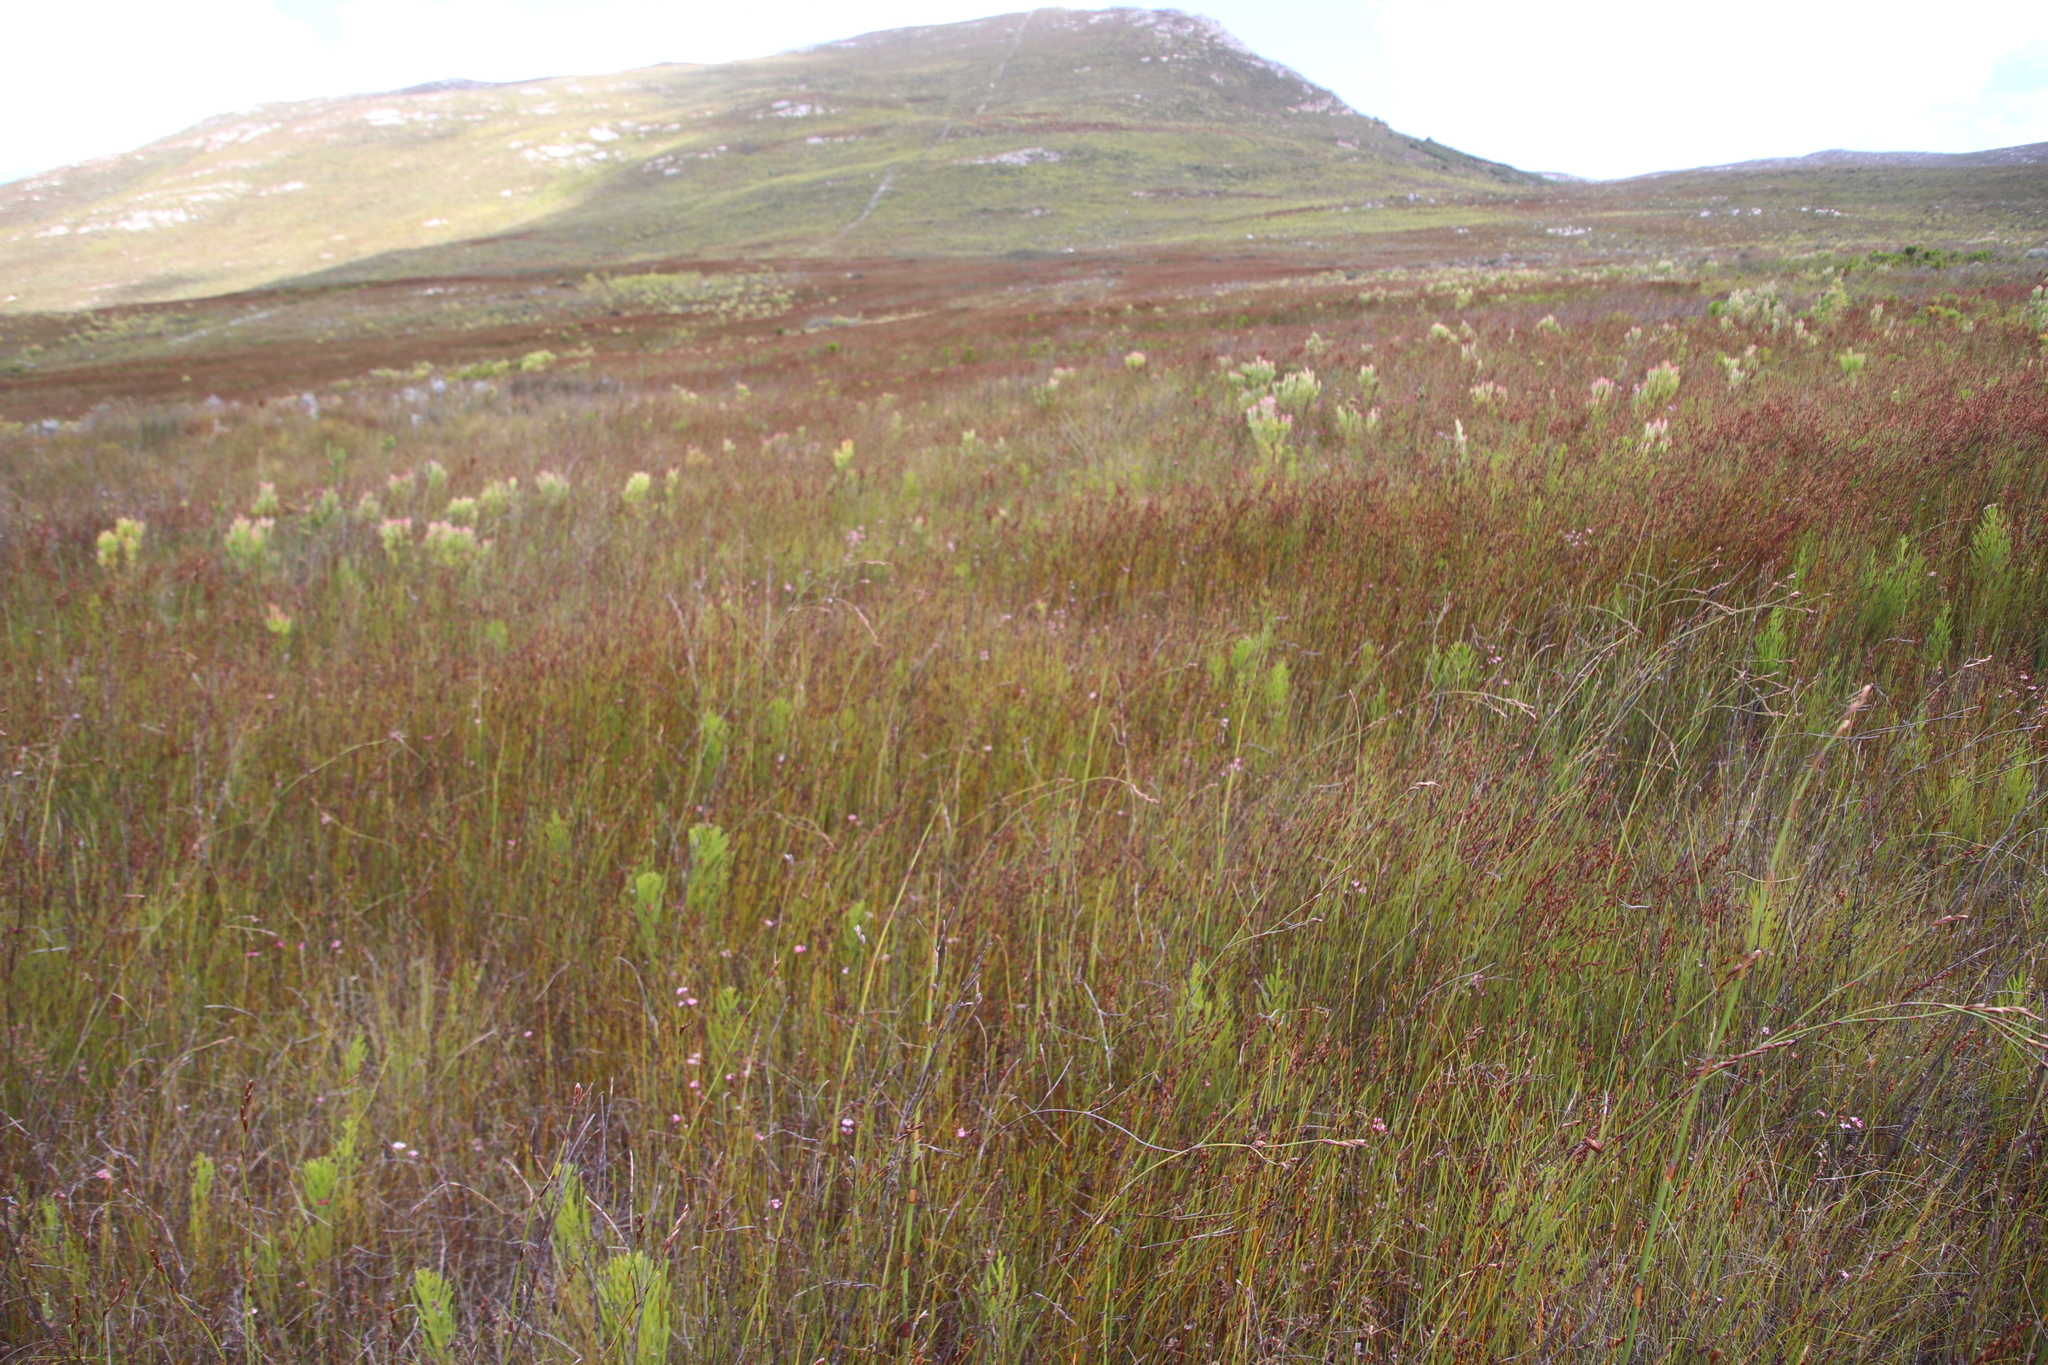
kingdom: Plantae
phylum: Tracheophyta
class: Magnoliopsida
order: Ericales
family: Ericaceae
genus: Erica
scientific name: Erica fastigiata
